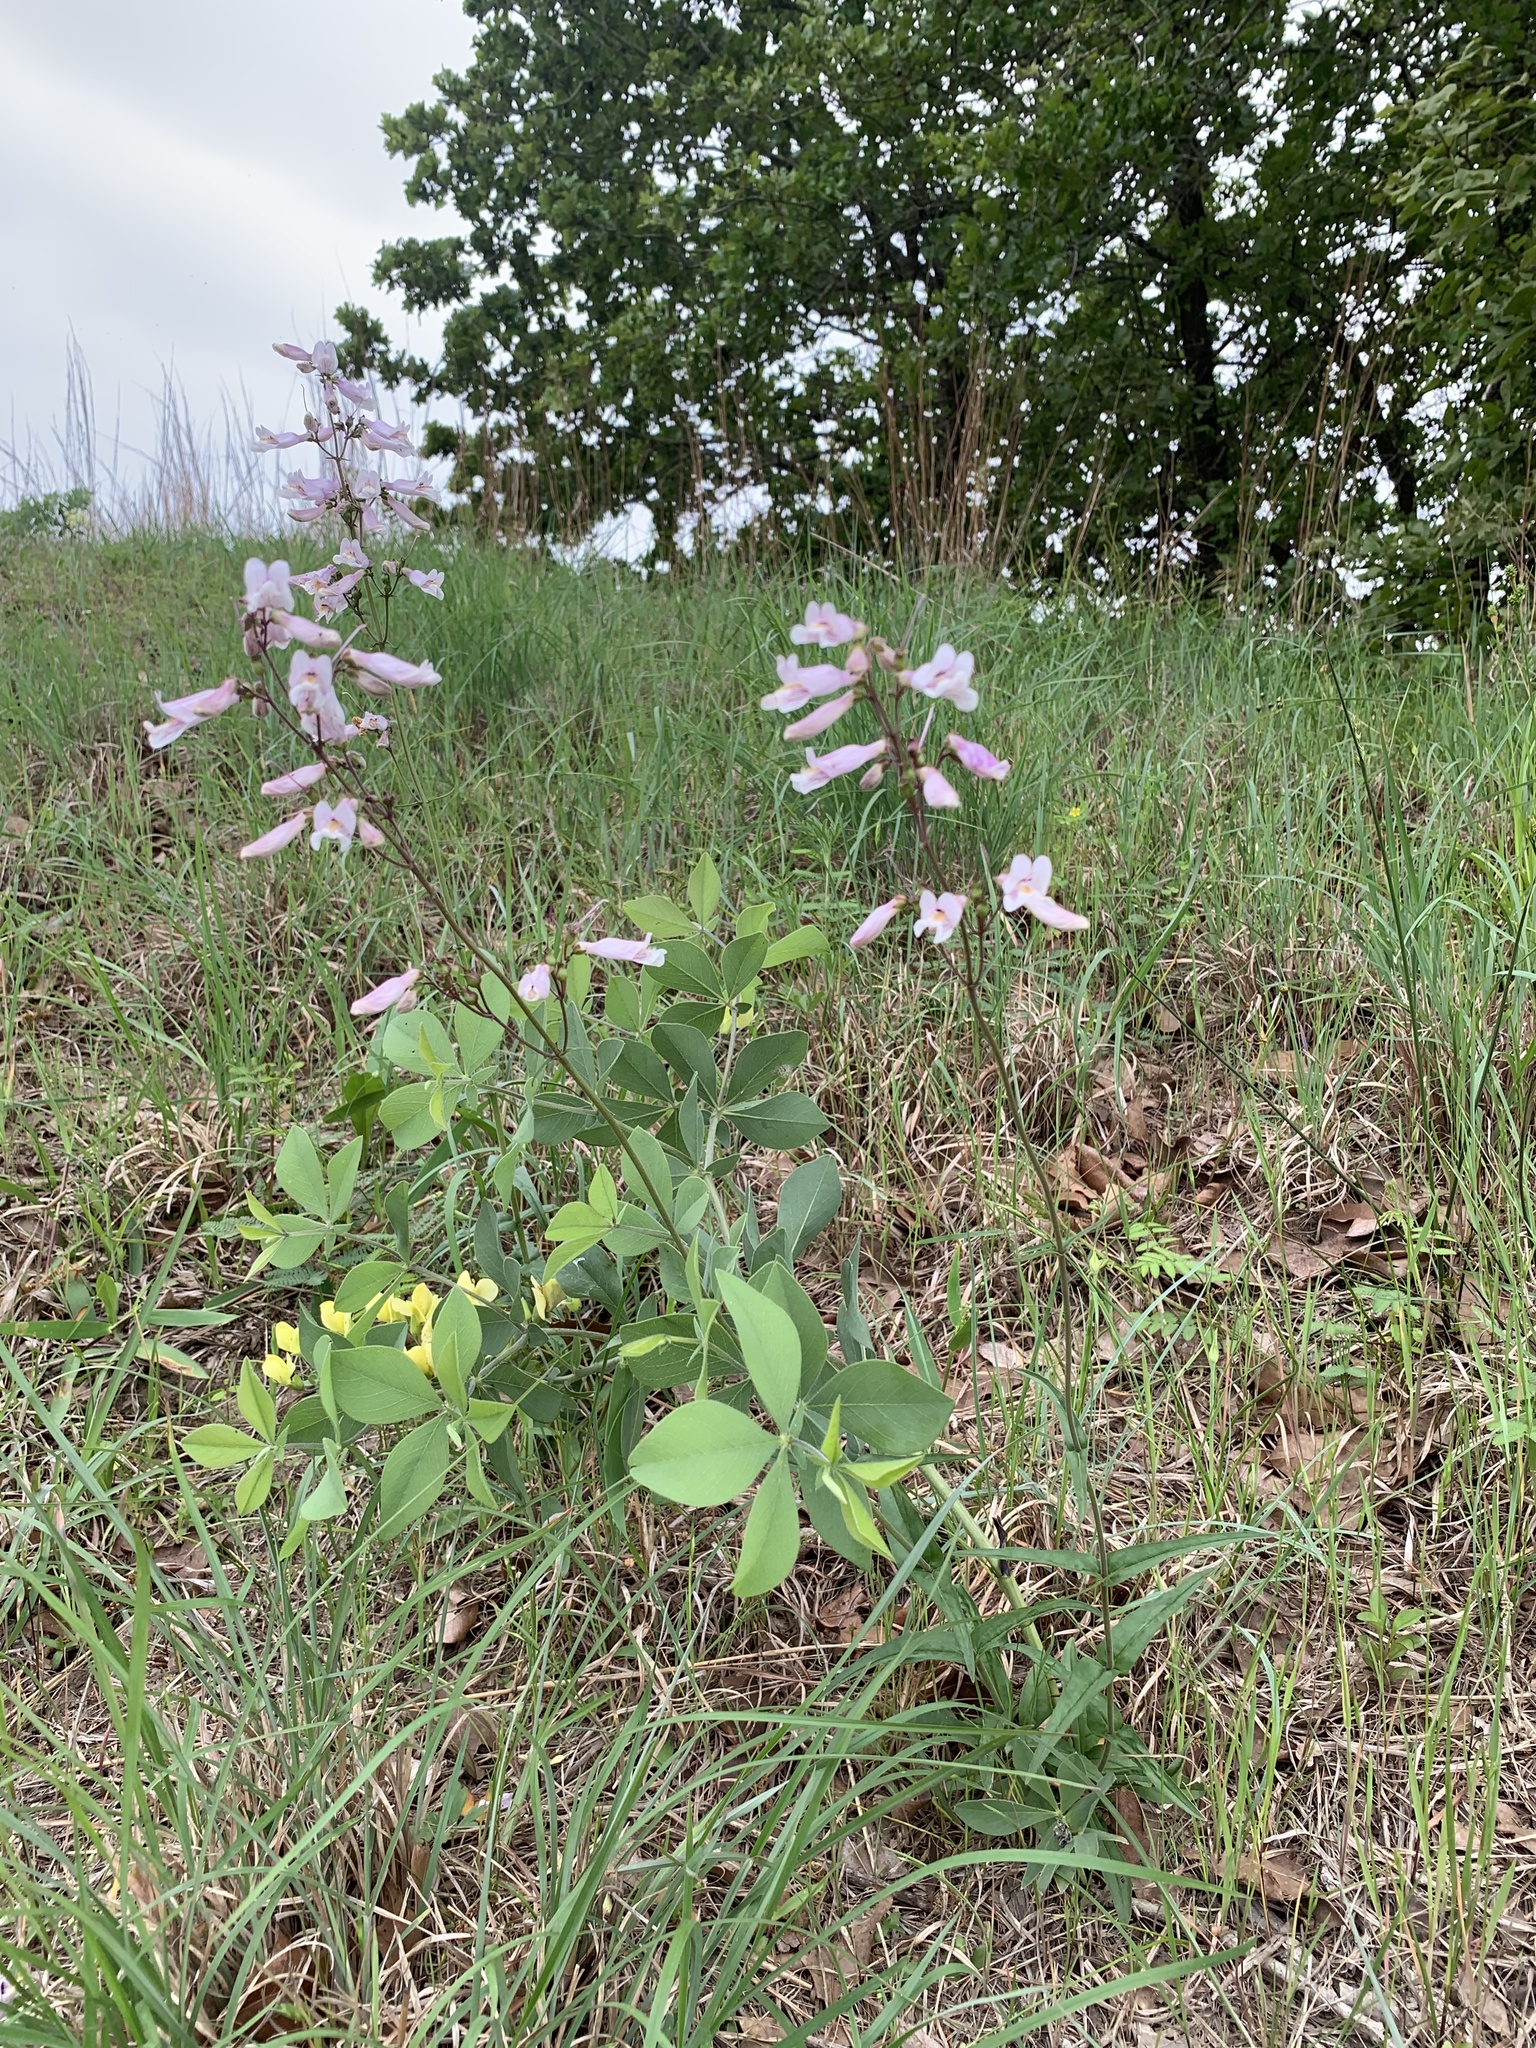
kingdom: Plantae
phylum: Tracheophyta
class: Magnoliopsida
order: Lamiales
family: Plantaginaceae
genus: Penstemon
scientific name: Penstemon laxiflorus
